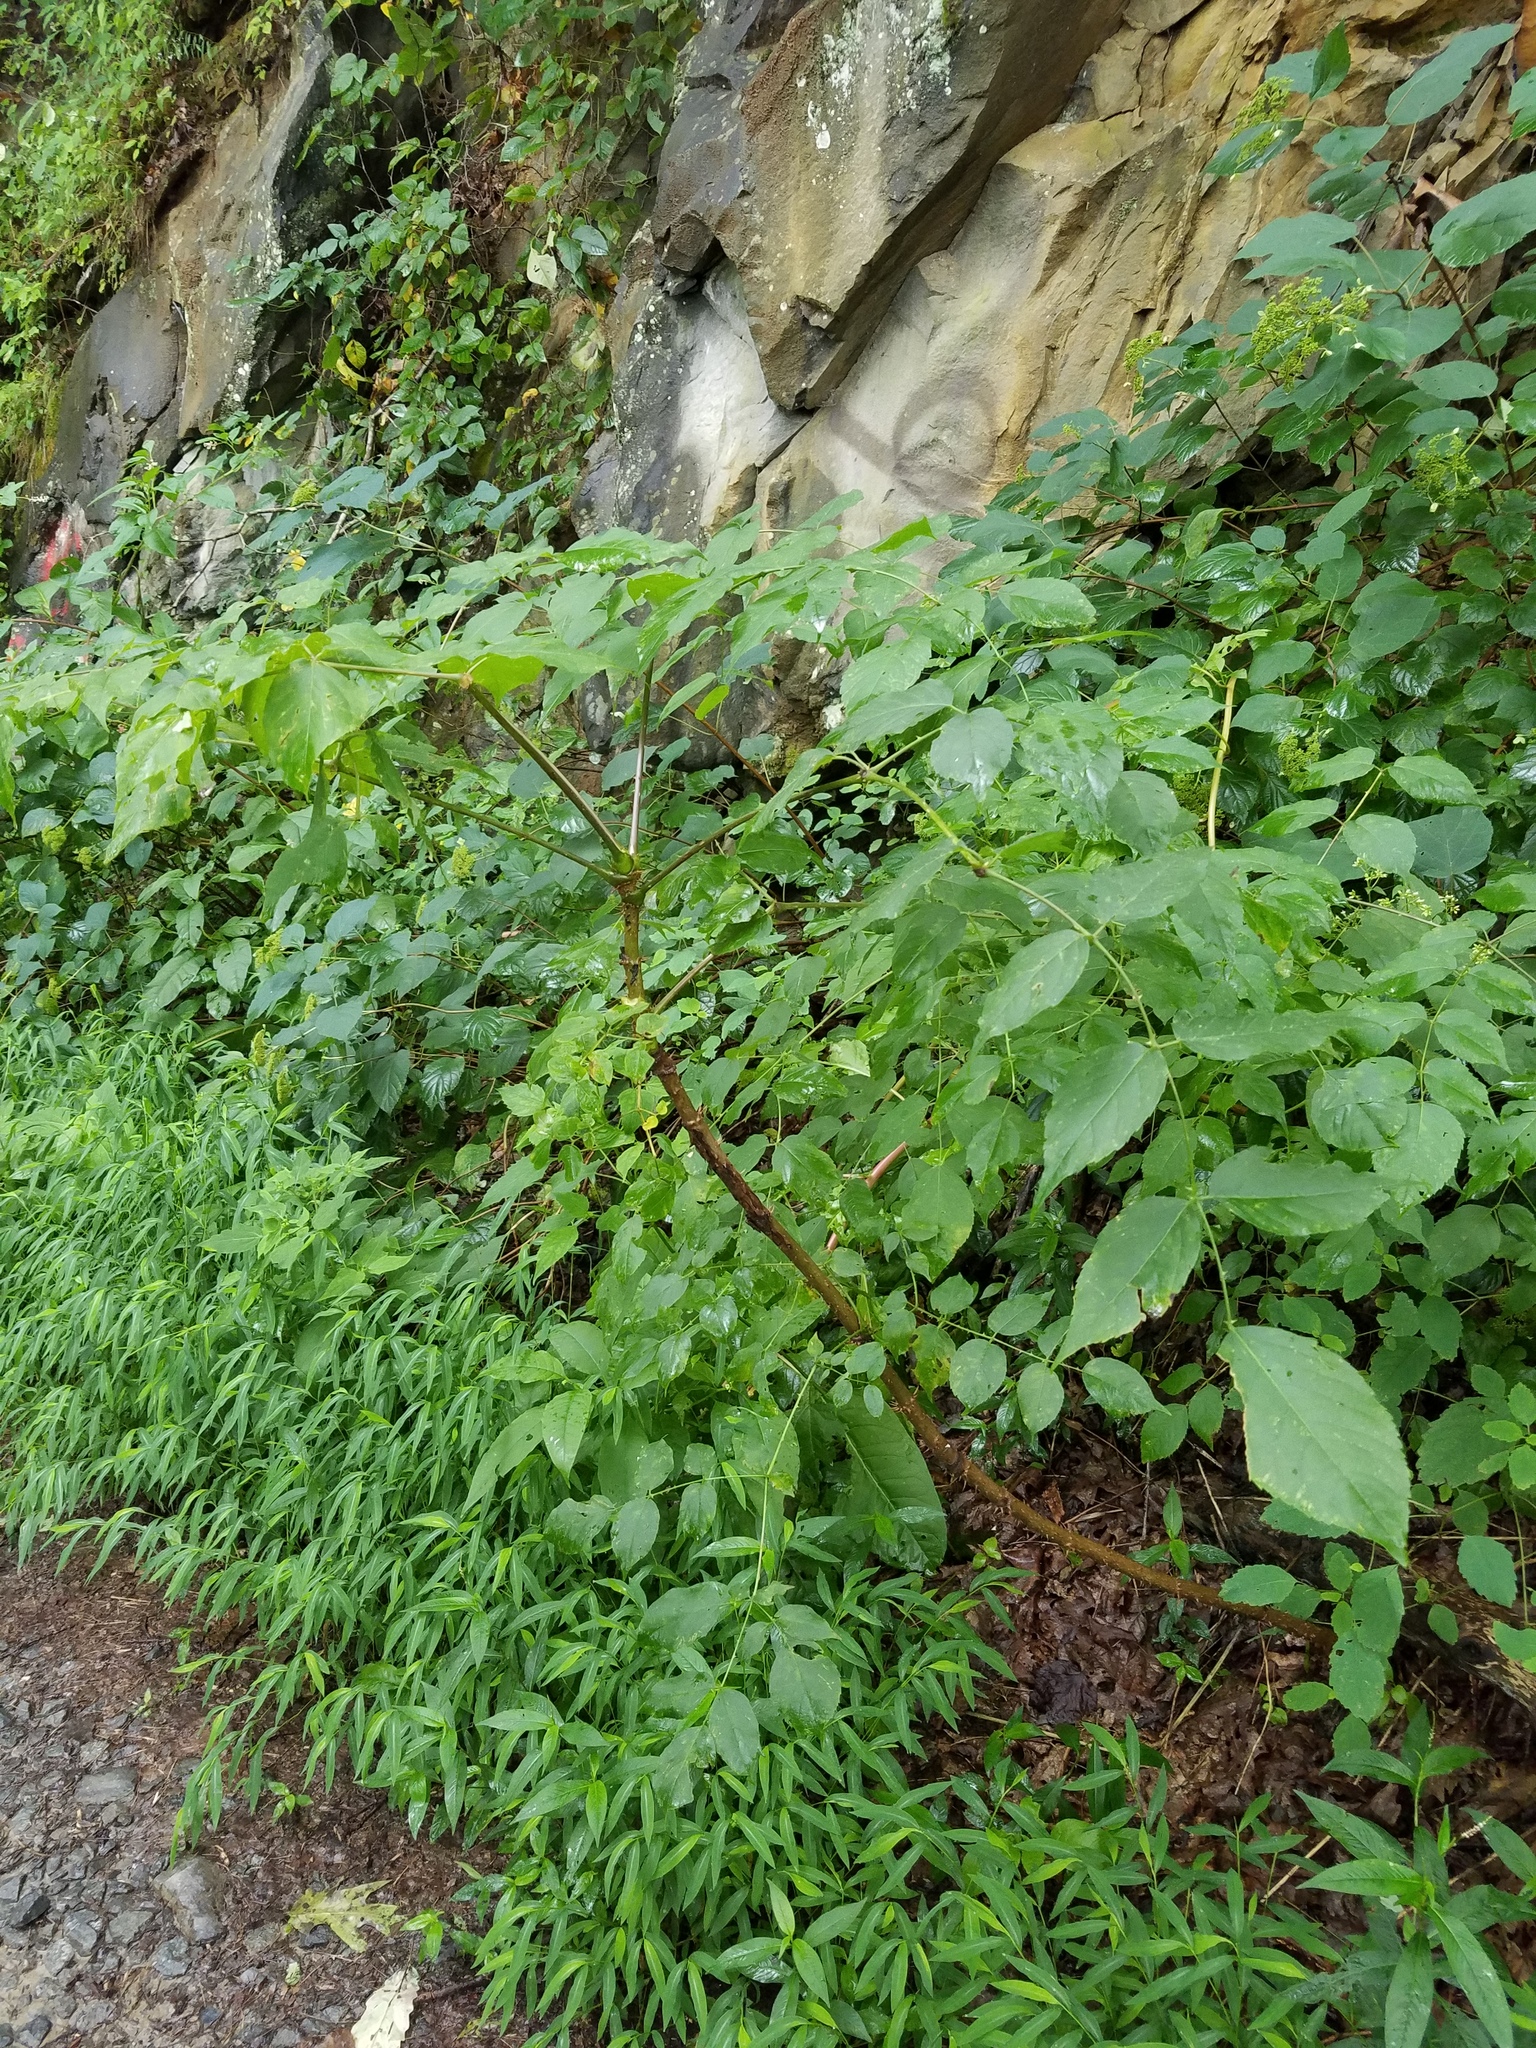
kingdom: Plantae
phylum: Tracheophyta
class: Magnoliopsida
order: Apiales
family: Araliaceae
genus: Aralia
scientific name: Aralia spinosa
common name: Hercules'-club
